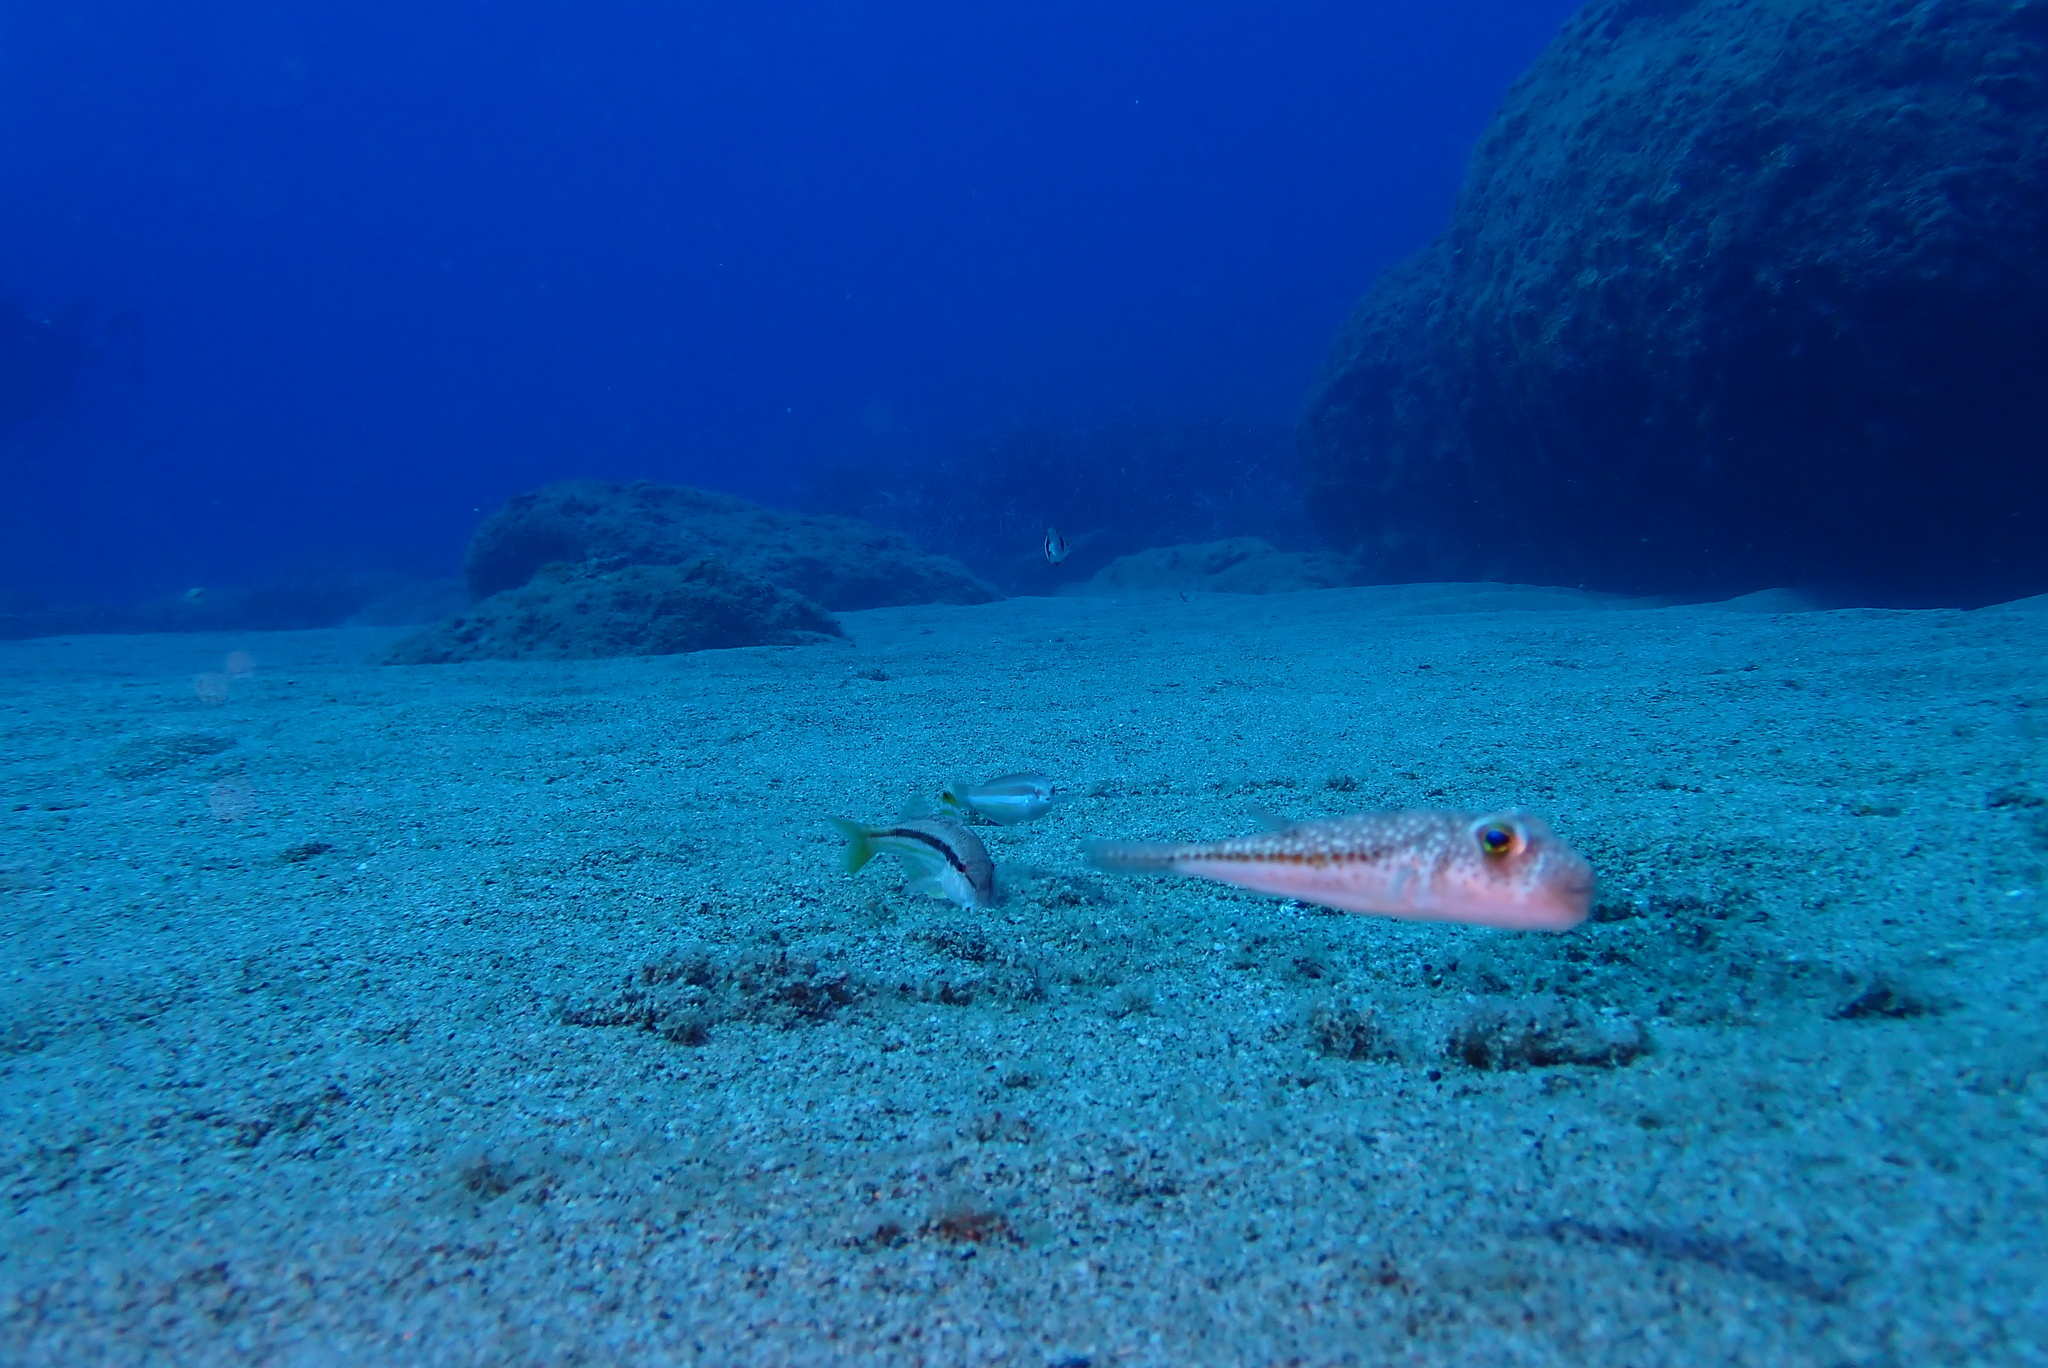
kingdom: Animalia
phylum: Chordata
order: Tetraodontiformes
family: Tetraodontidae
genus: Torquigener
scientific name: Torquigener flavimaculosus
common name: Studded pufferfish
